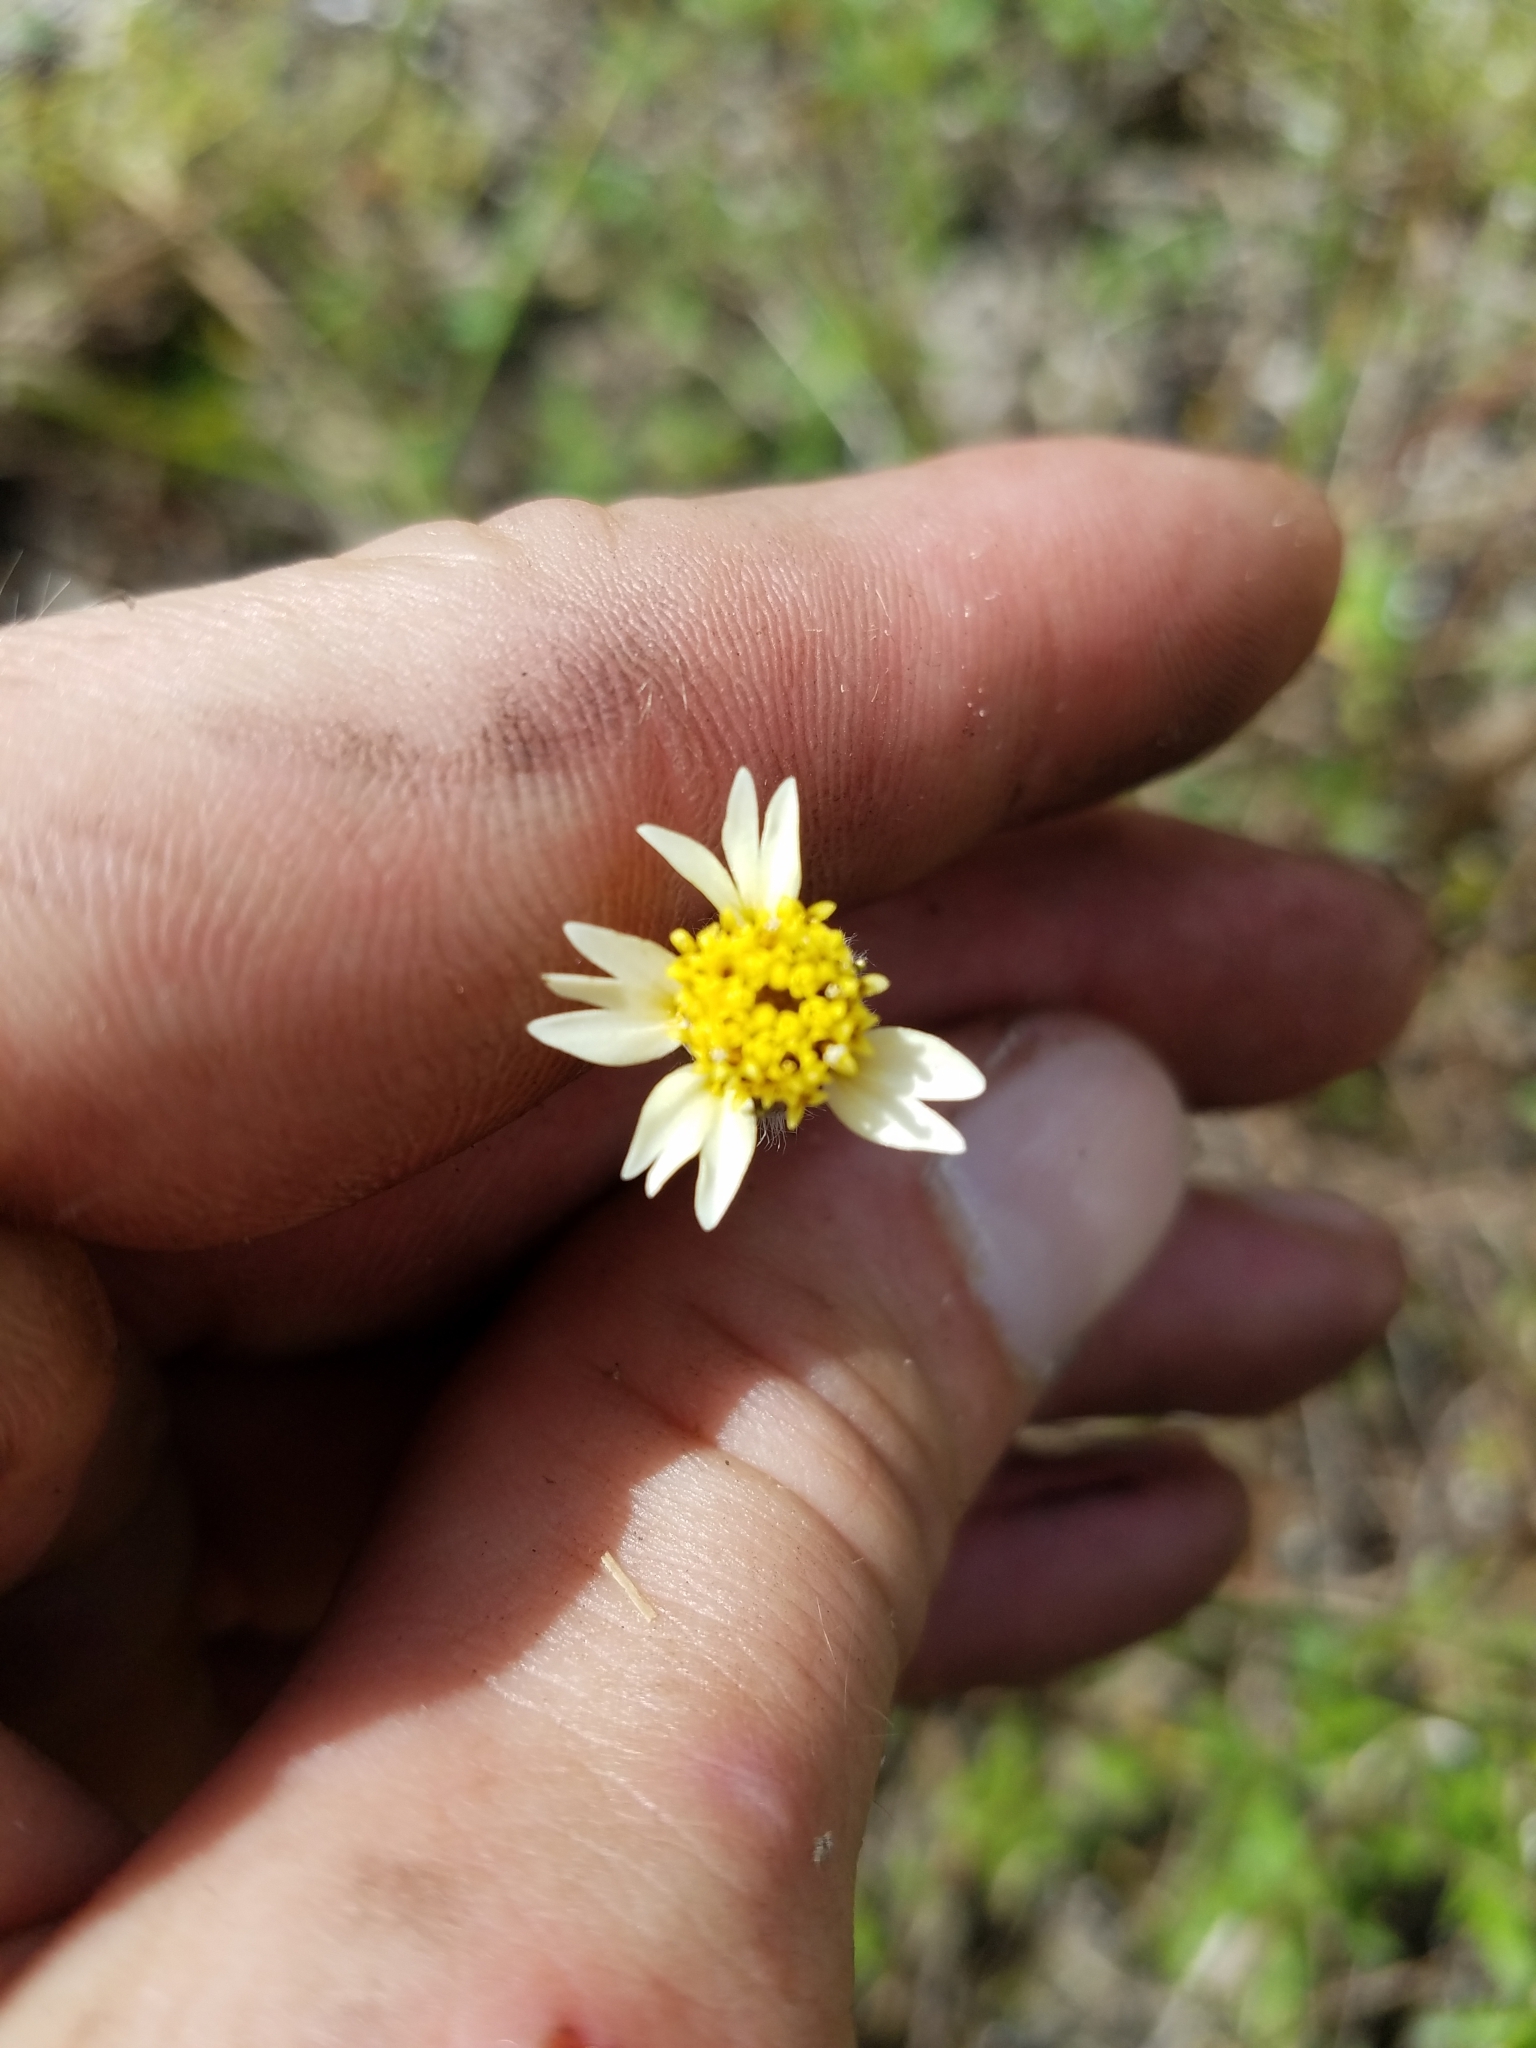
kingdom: Plantae
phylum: Tracheophyta
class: Magnoliopsida
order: Asterales
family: Asteraceae
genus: Tridax
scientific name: Tridax procumbens
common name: Coatbuttons
